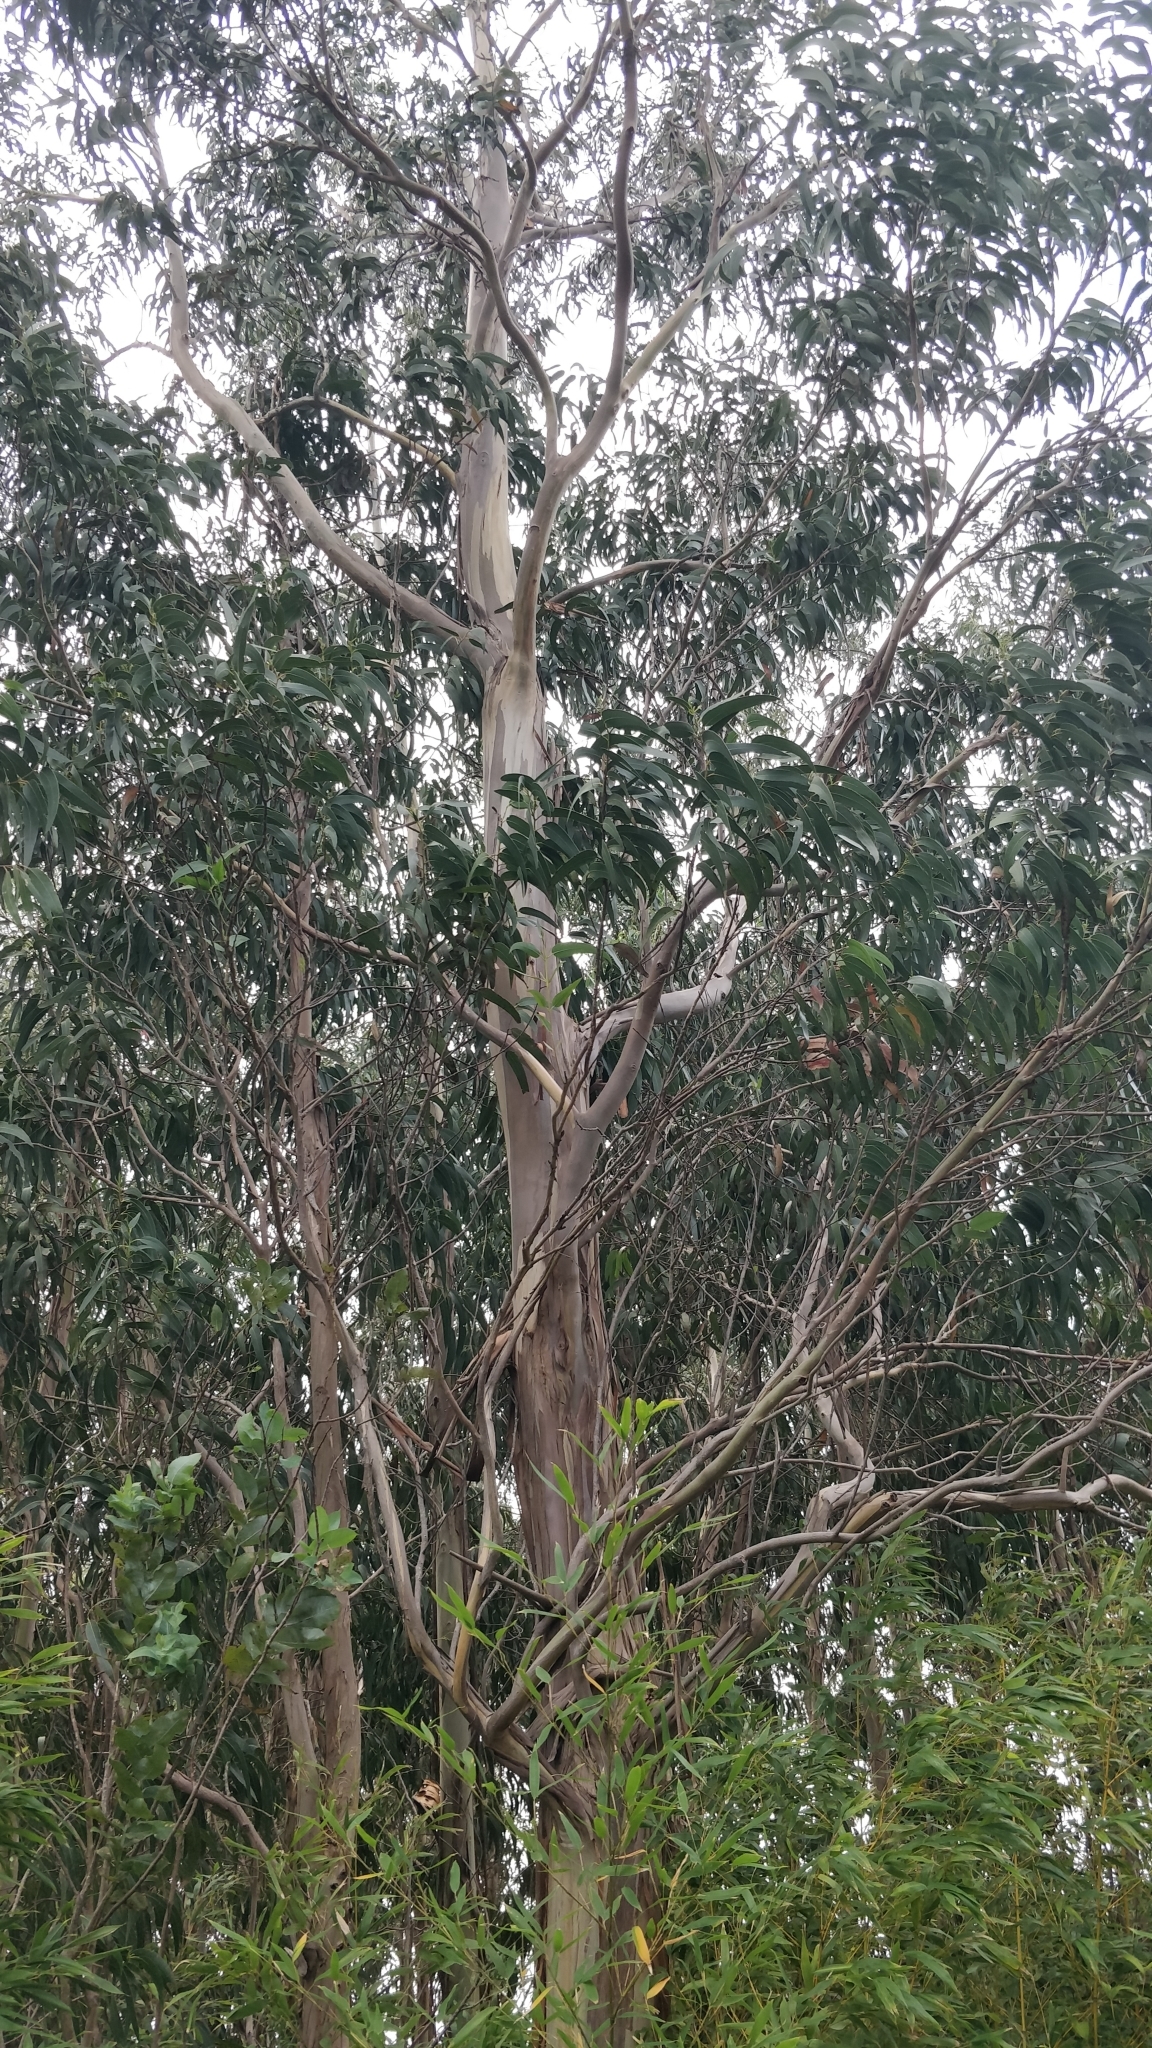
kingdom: Plantae
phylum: Tracheophyta
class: Magnoliopsida
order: Myrtales
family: Myrtaceae
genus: Eucalyptus
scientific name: Eucalyptus globulus
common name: Southern blue-gum
